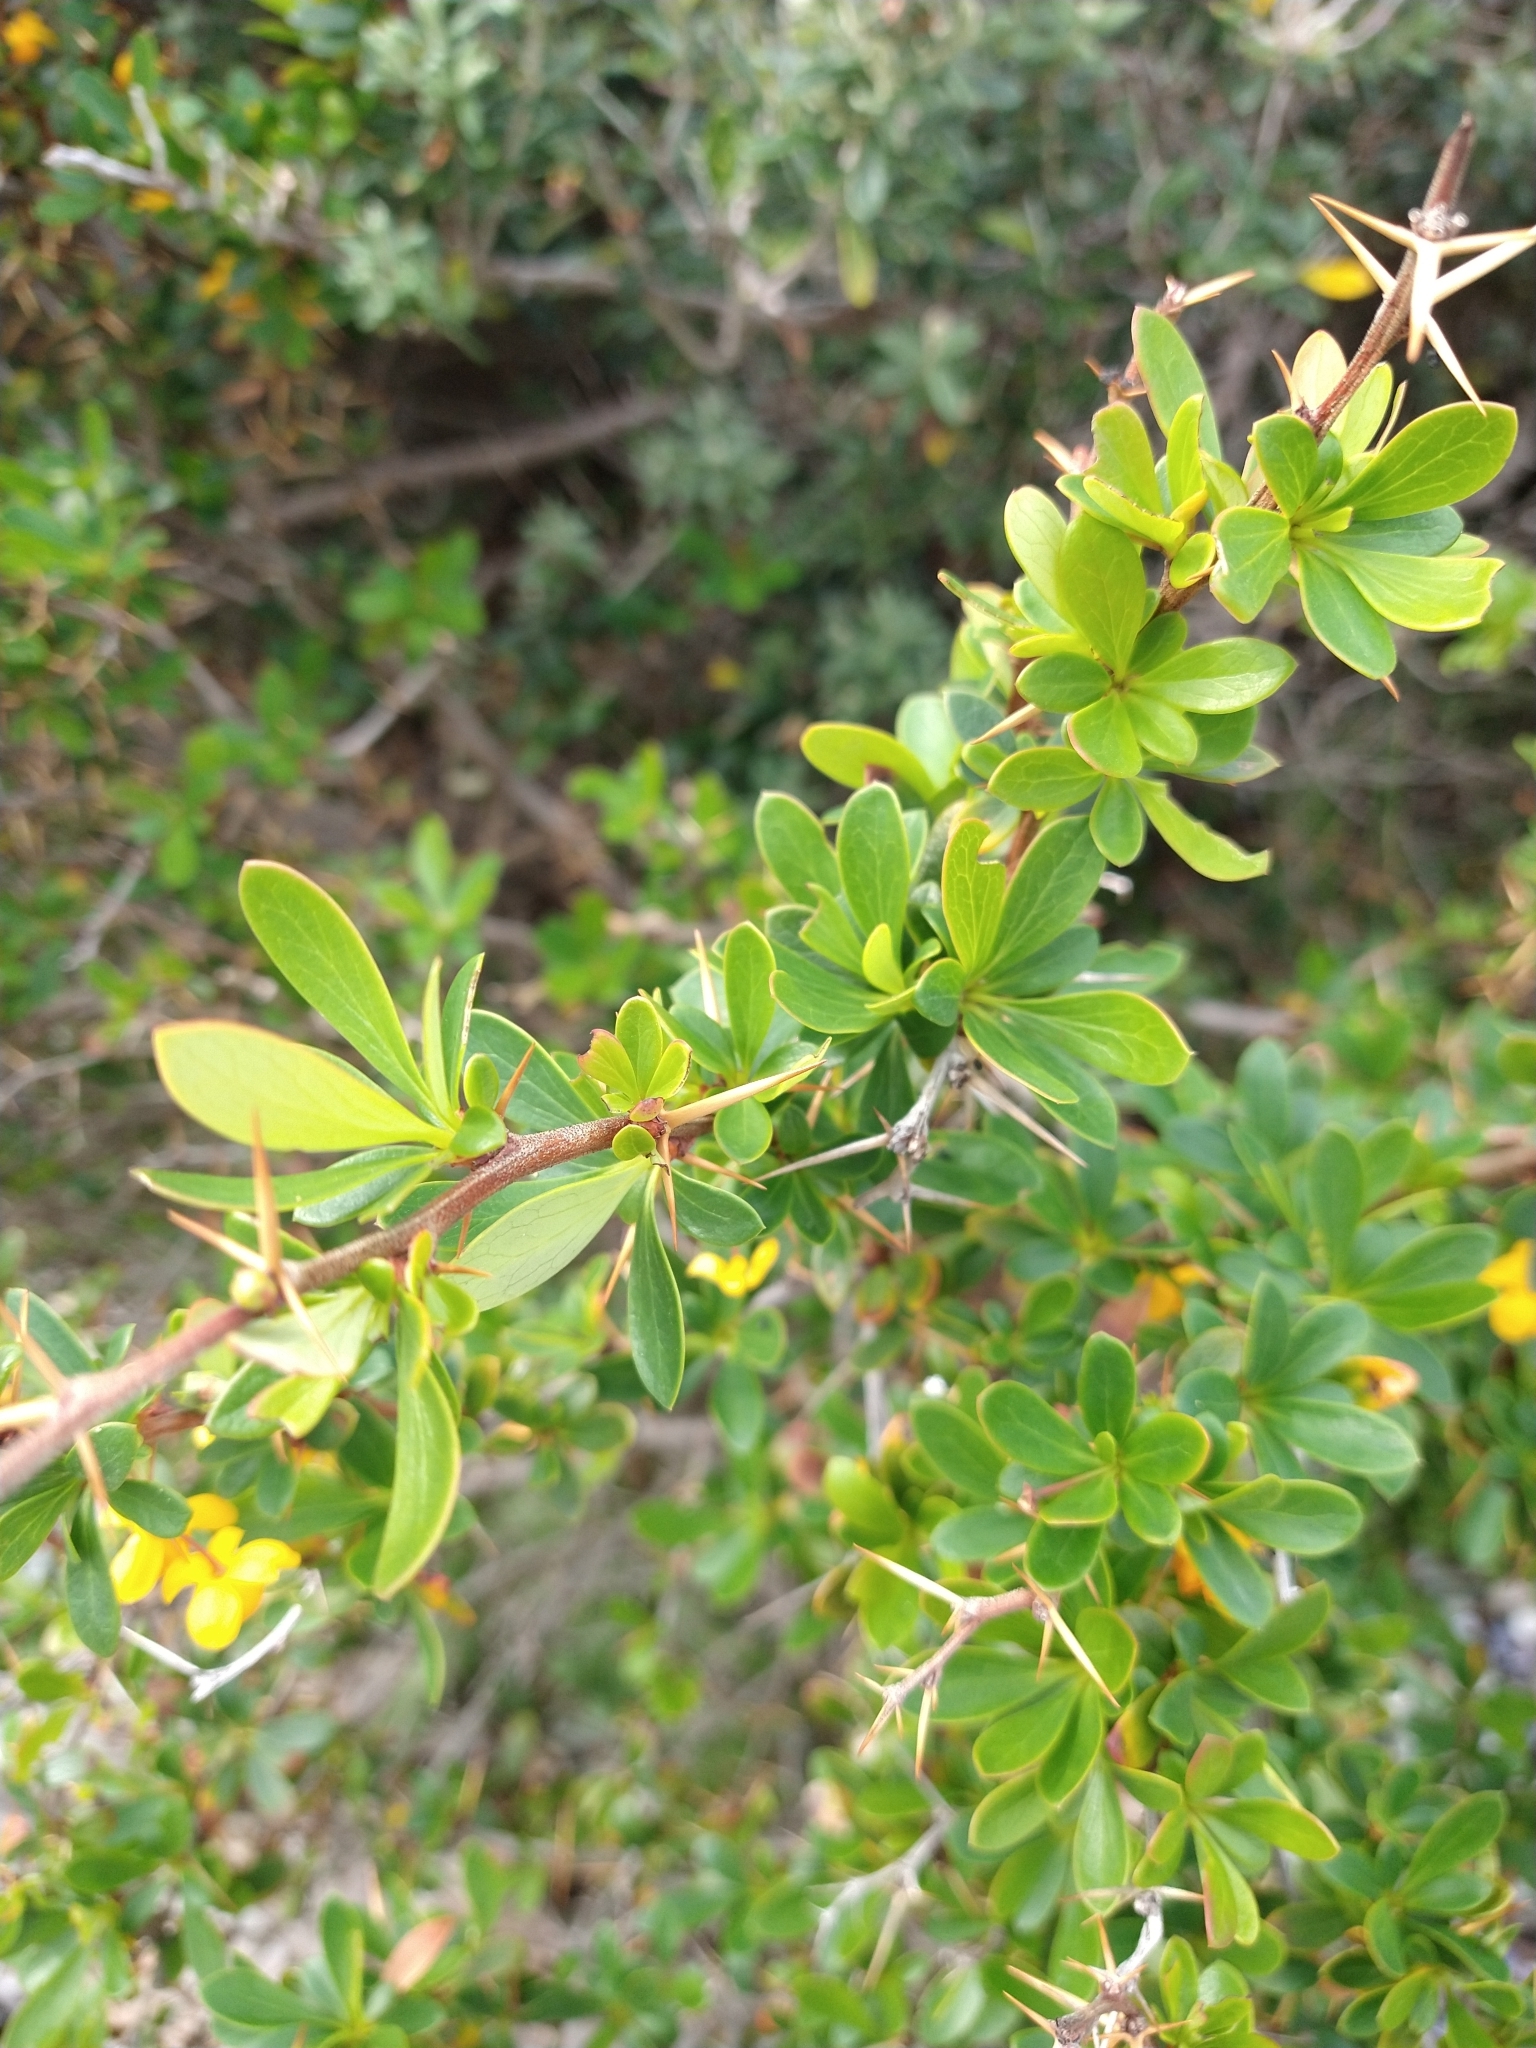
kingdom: Plantae
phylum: Tracheophyta
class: Magnoliopsida
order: Ranunculales
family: Berberidaceae
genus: Berberis
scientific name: Berberis microphylla
